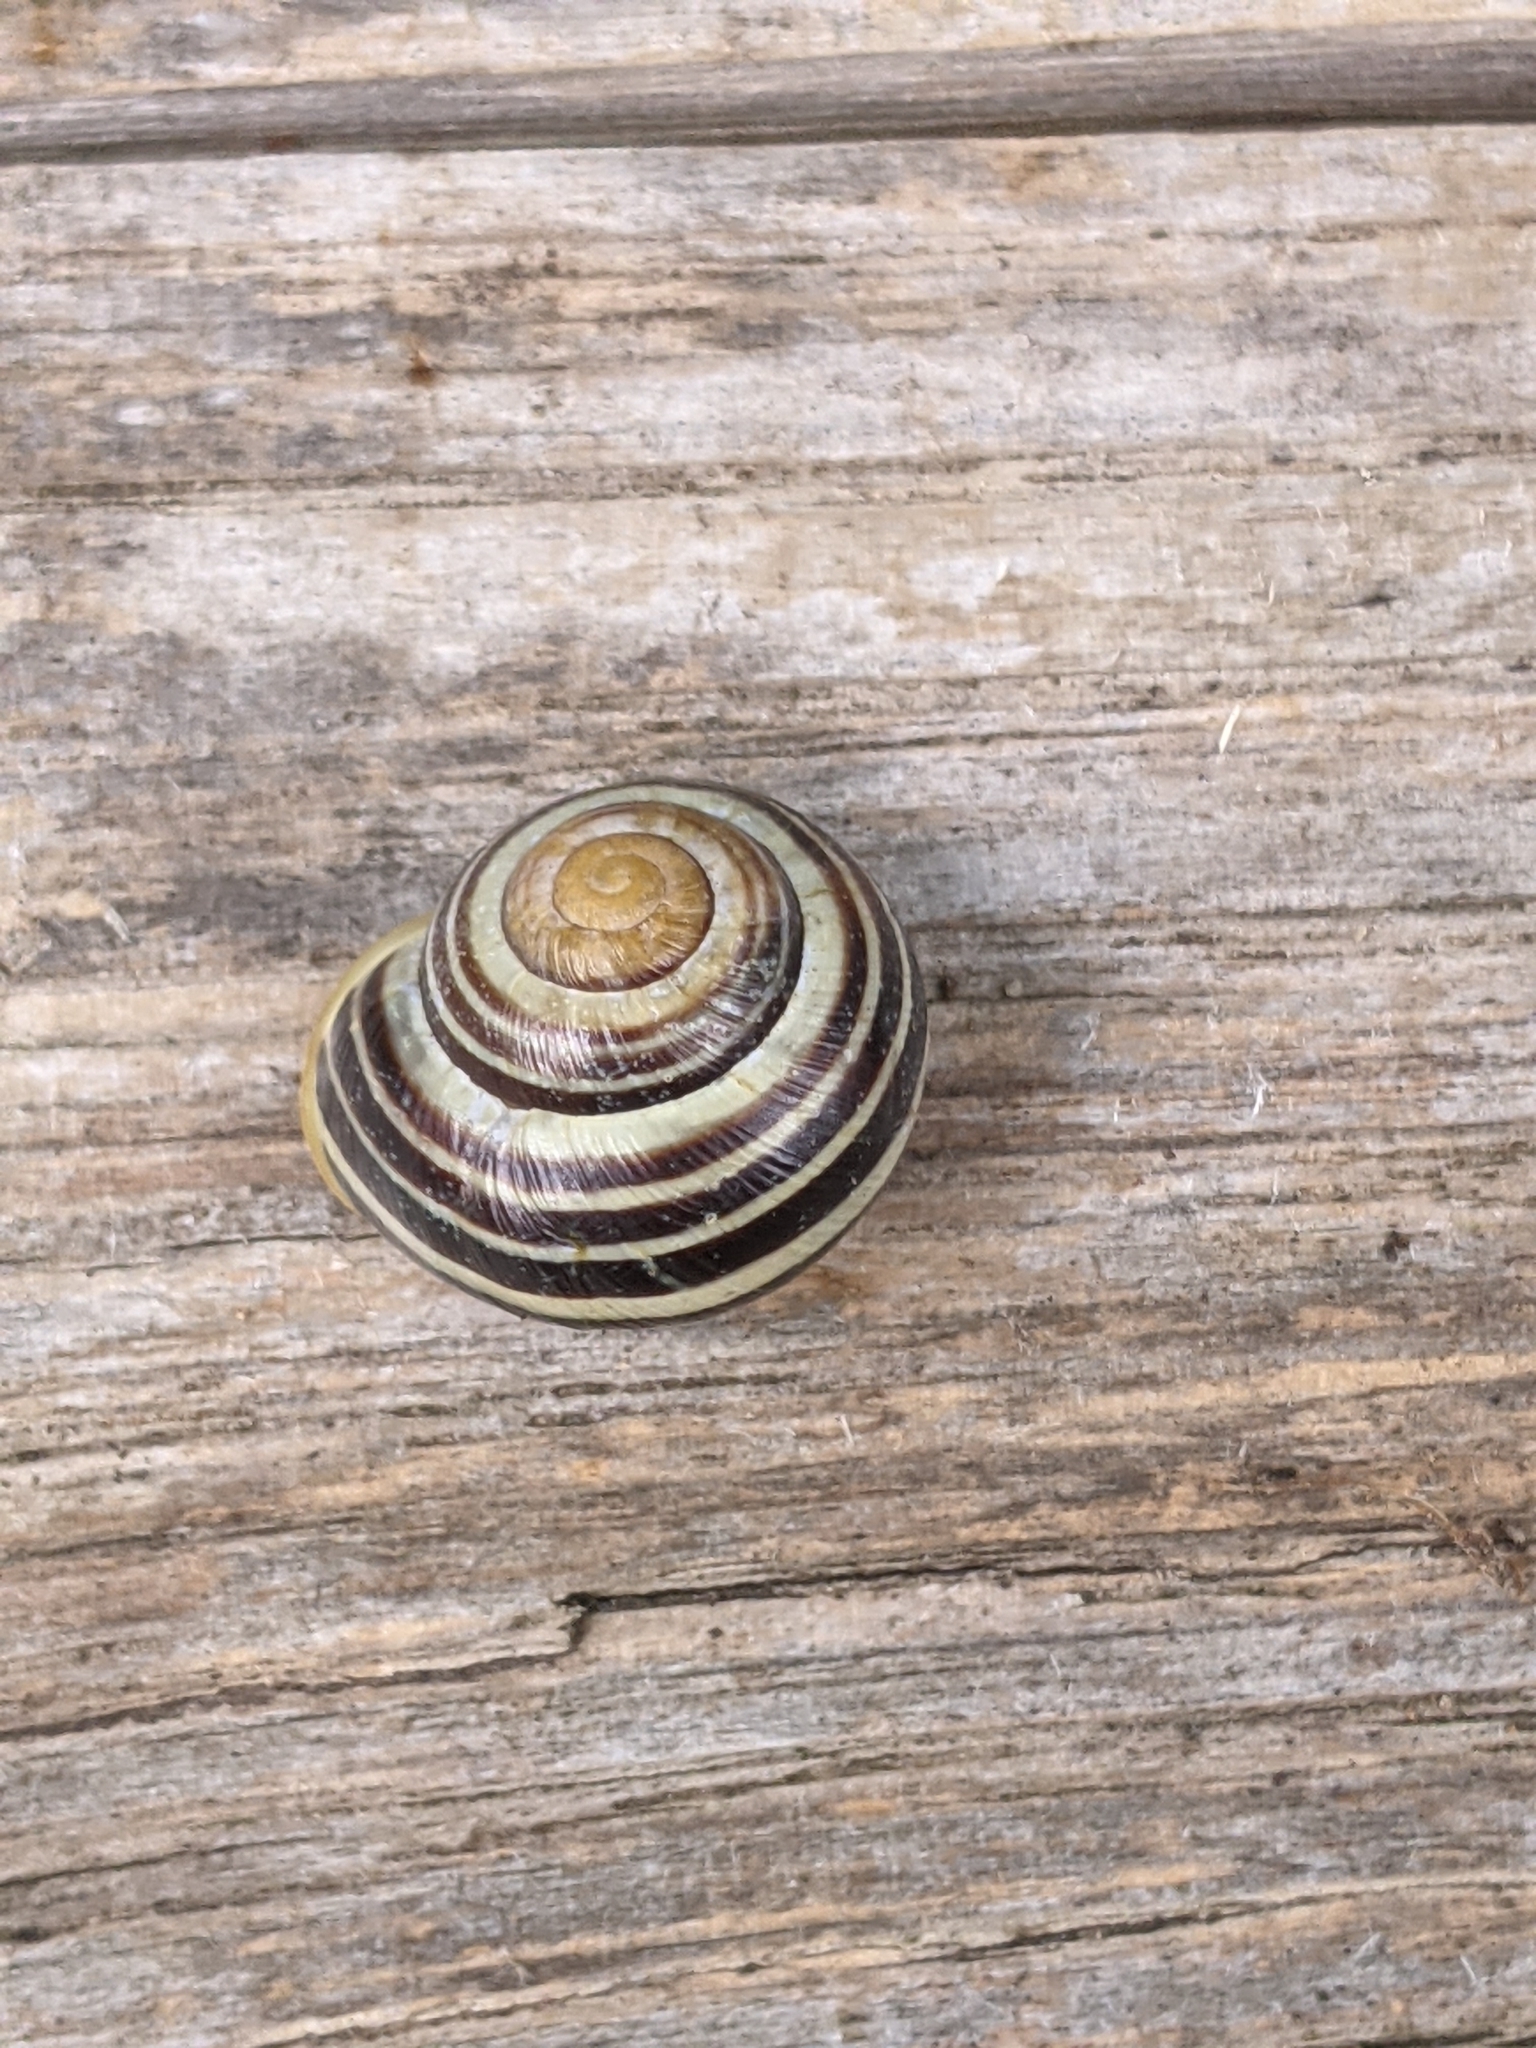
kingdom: Animalia
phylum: Mollusca
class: Gastropoda
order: Stylommatophora
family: Helicidae
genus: Cepaea
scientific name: Cepaea hortensis
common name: White-lip gardensnail
